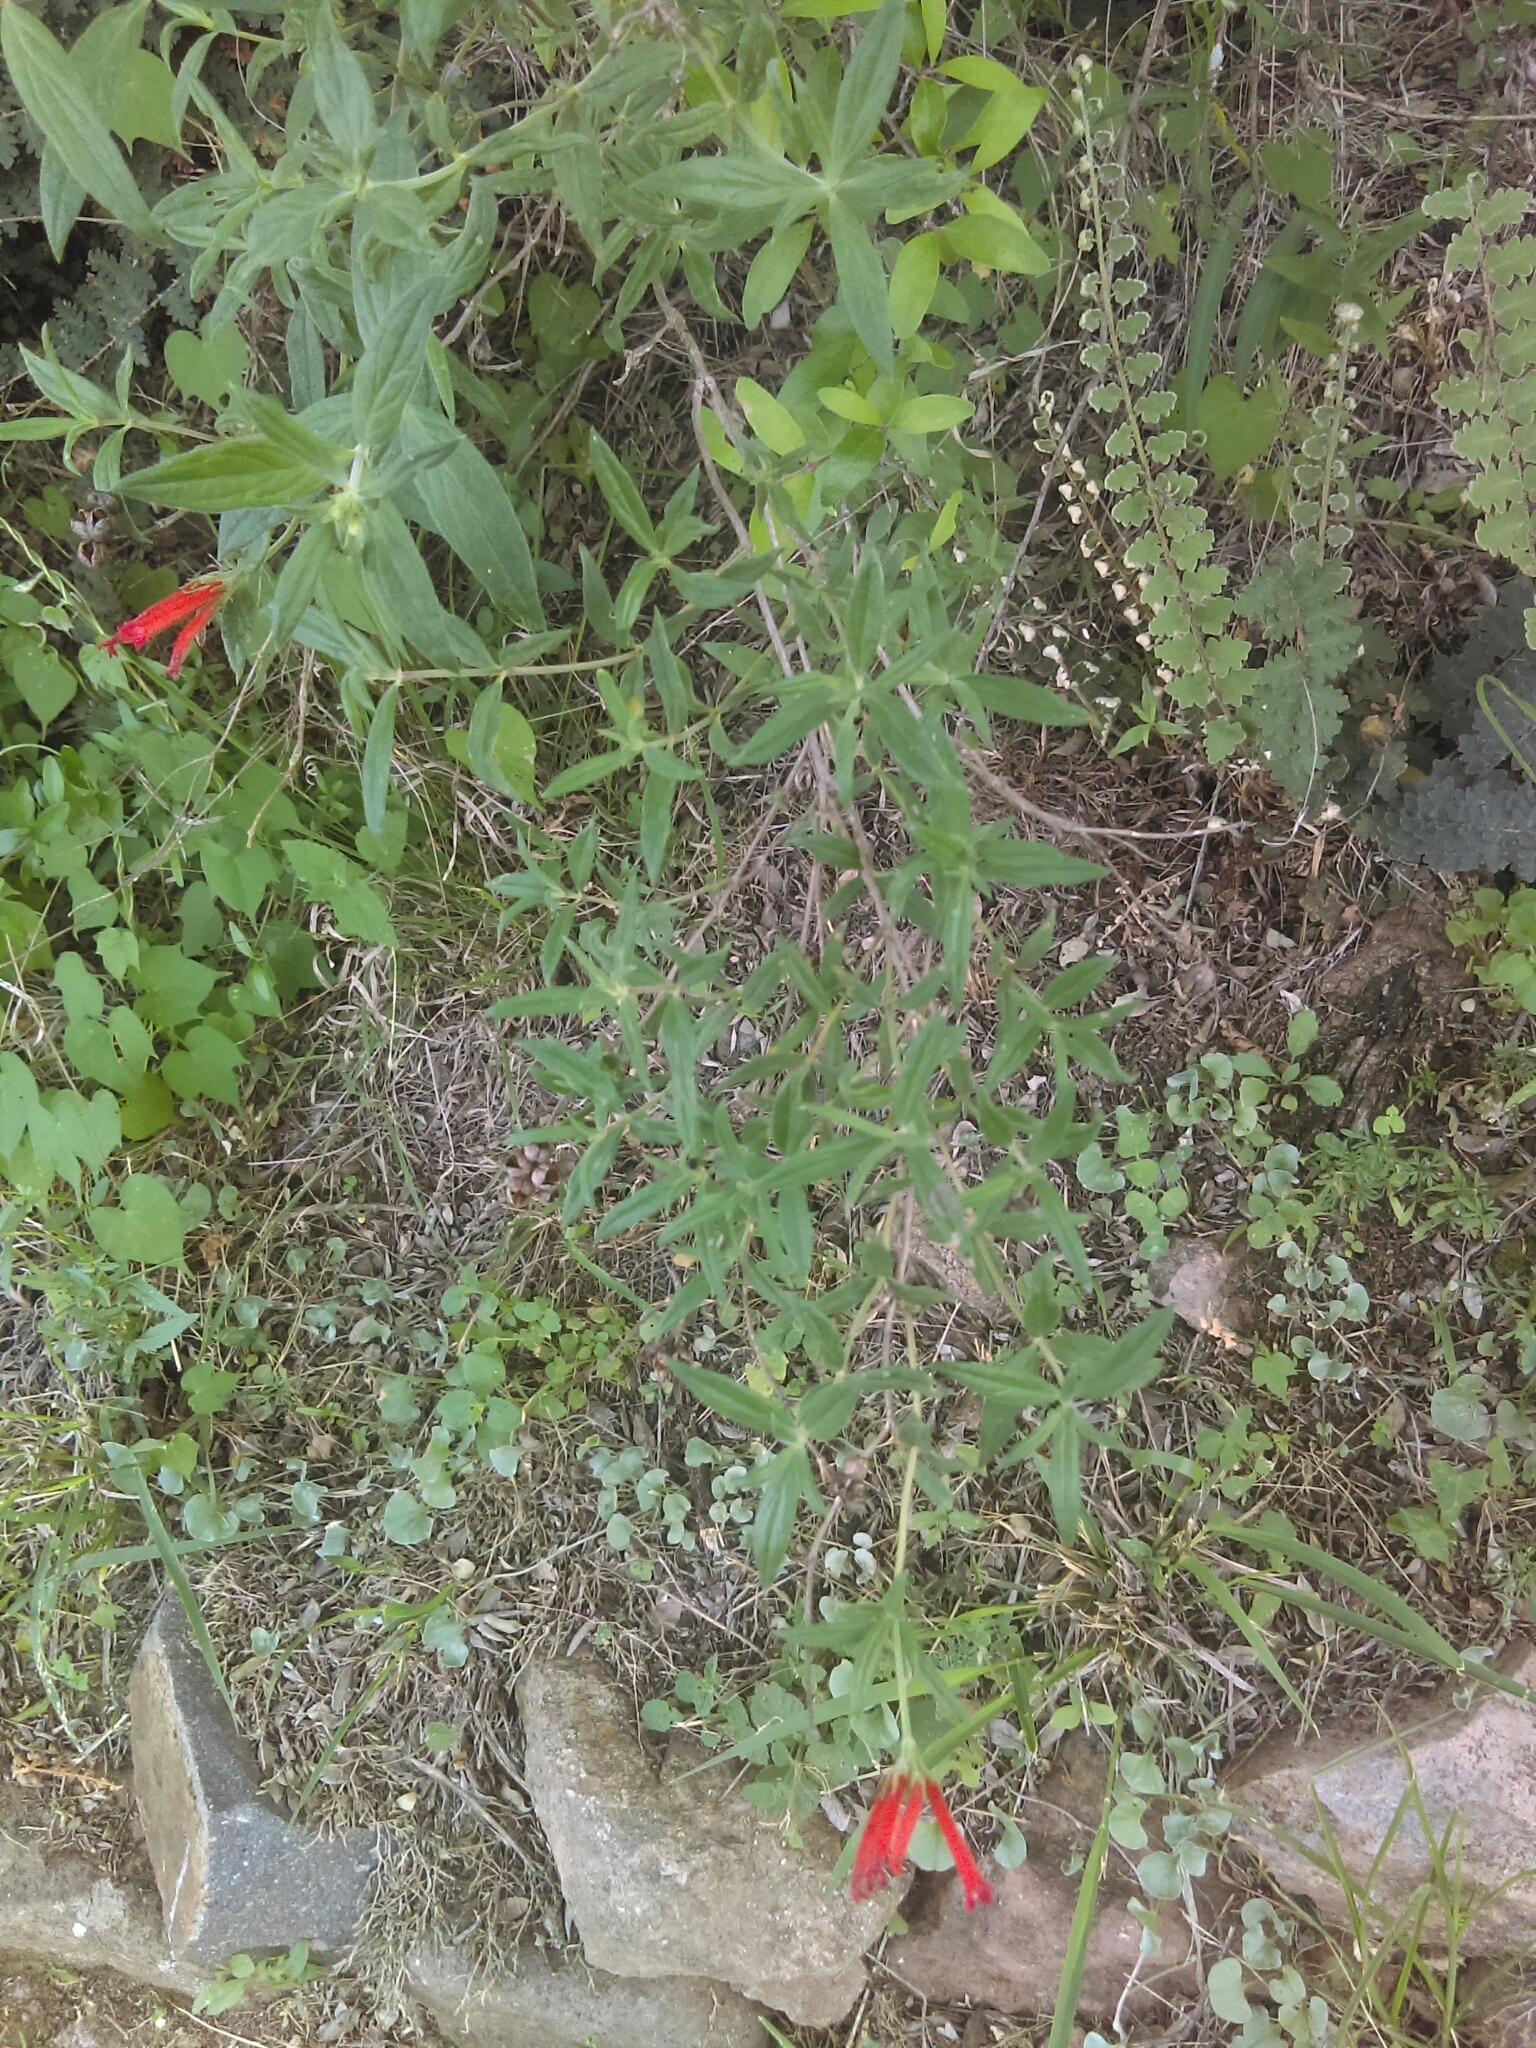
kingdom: Plantae
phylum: Tracheophyta
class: Magnoliopsida
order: Gentianales
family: Rubiaceae
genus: Bouvardia
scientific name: Bouvardia ternifolia
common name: Scarlet bouvardia
